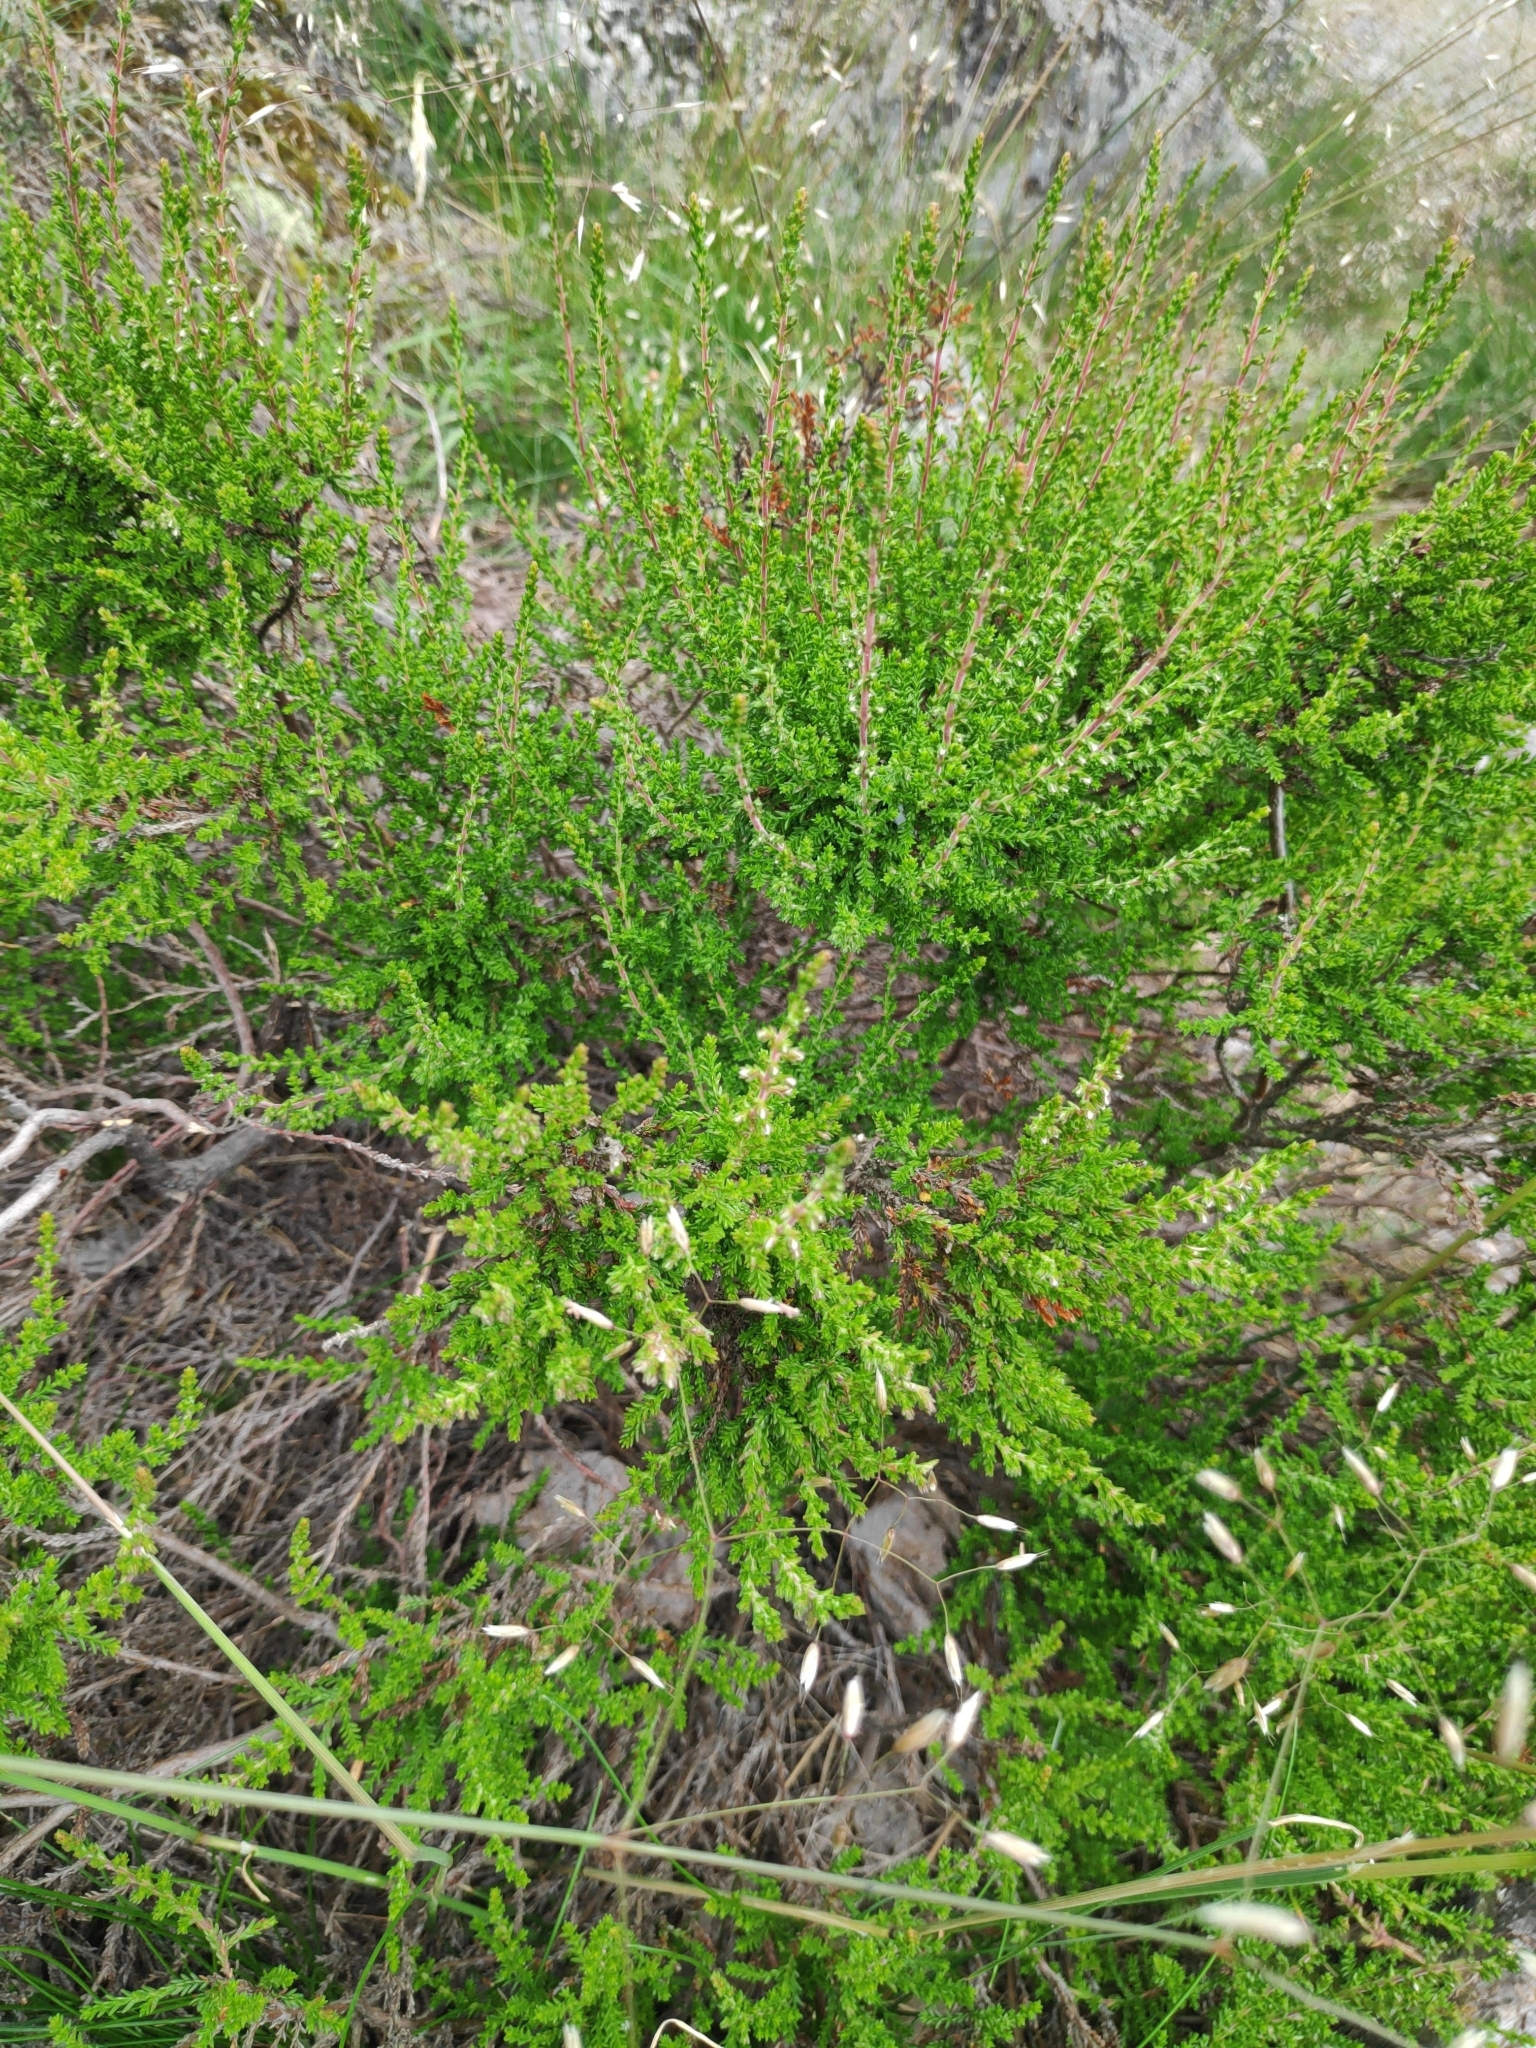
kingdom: Plantae
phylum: Tracheophyta
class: Magnoliopsida
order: Ericales
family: Ericaceae
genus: Calluna
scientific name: Calluna vulgaris
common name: Heather
